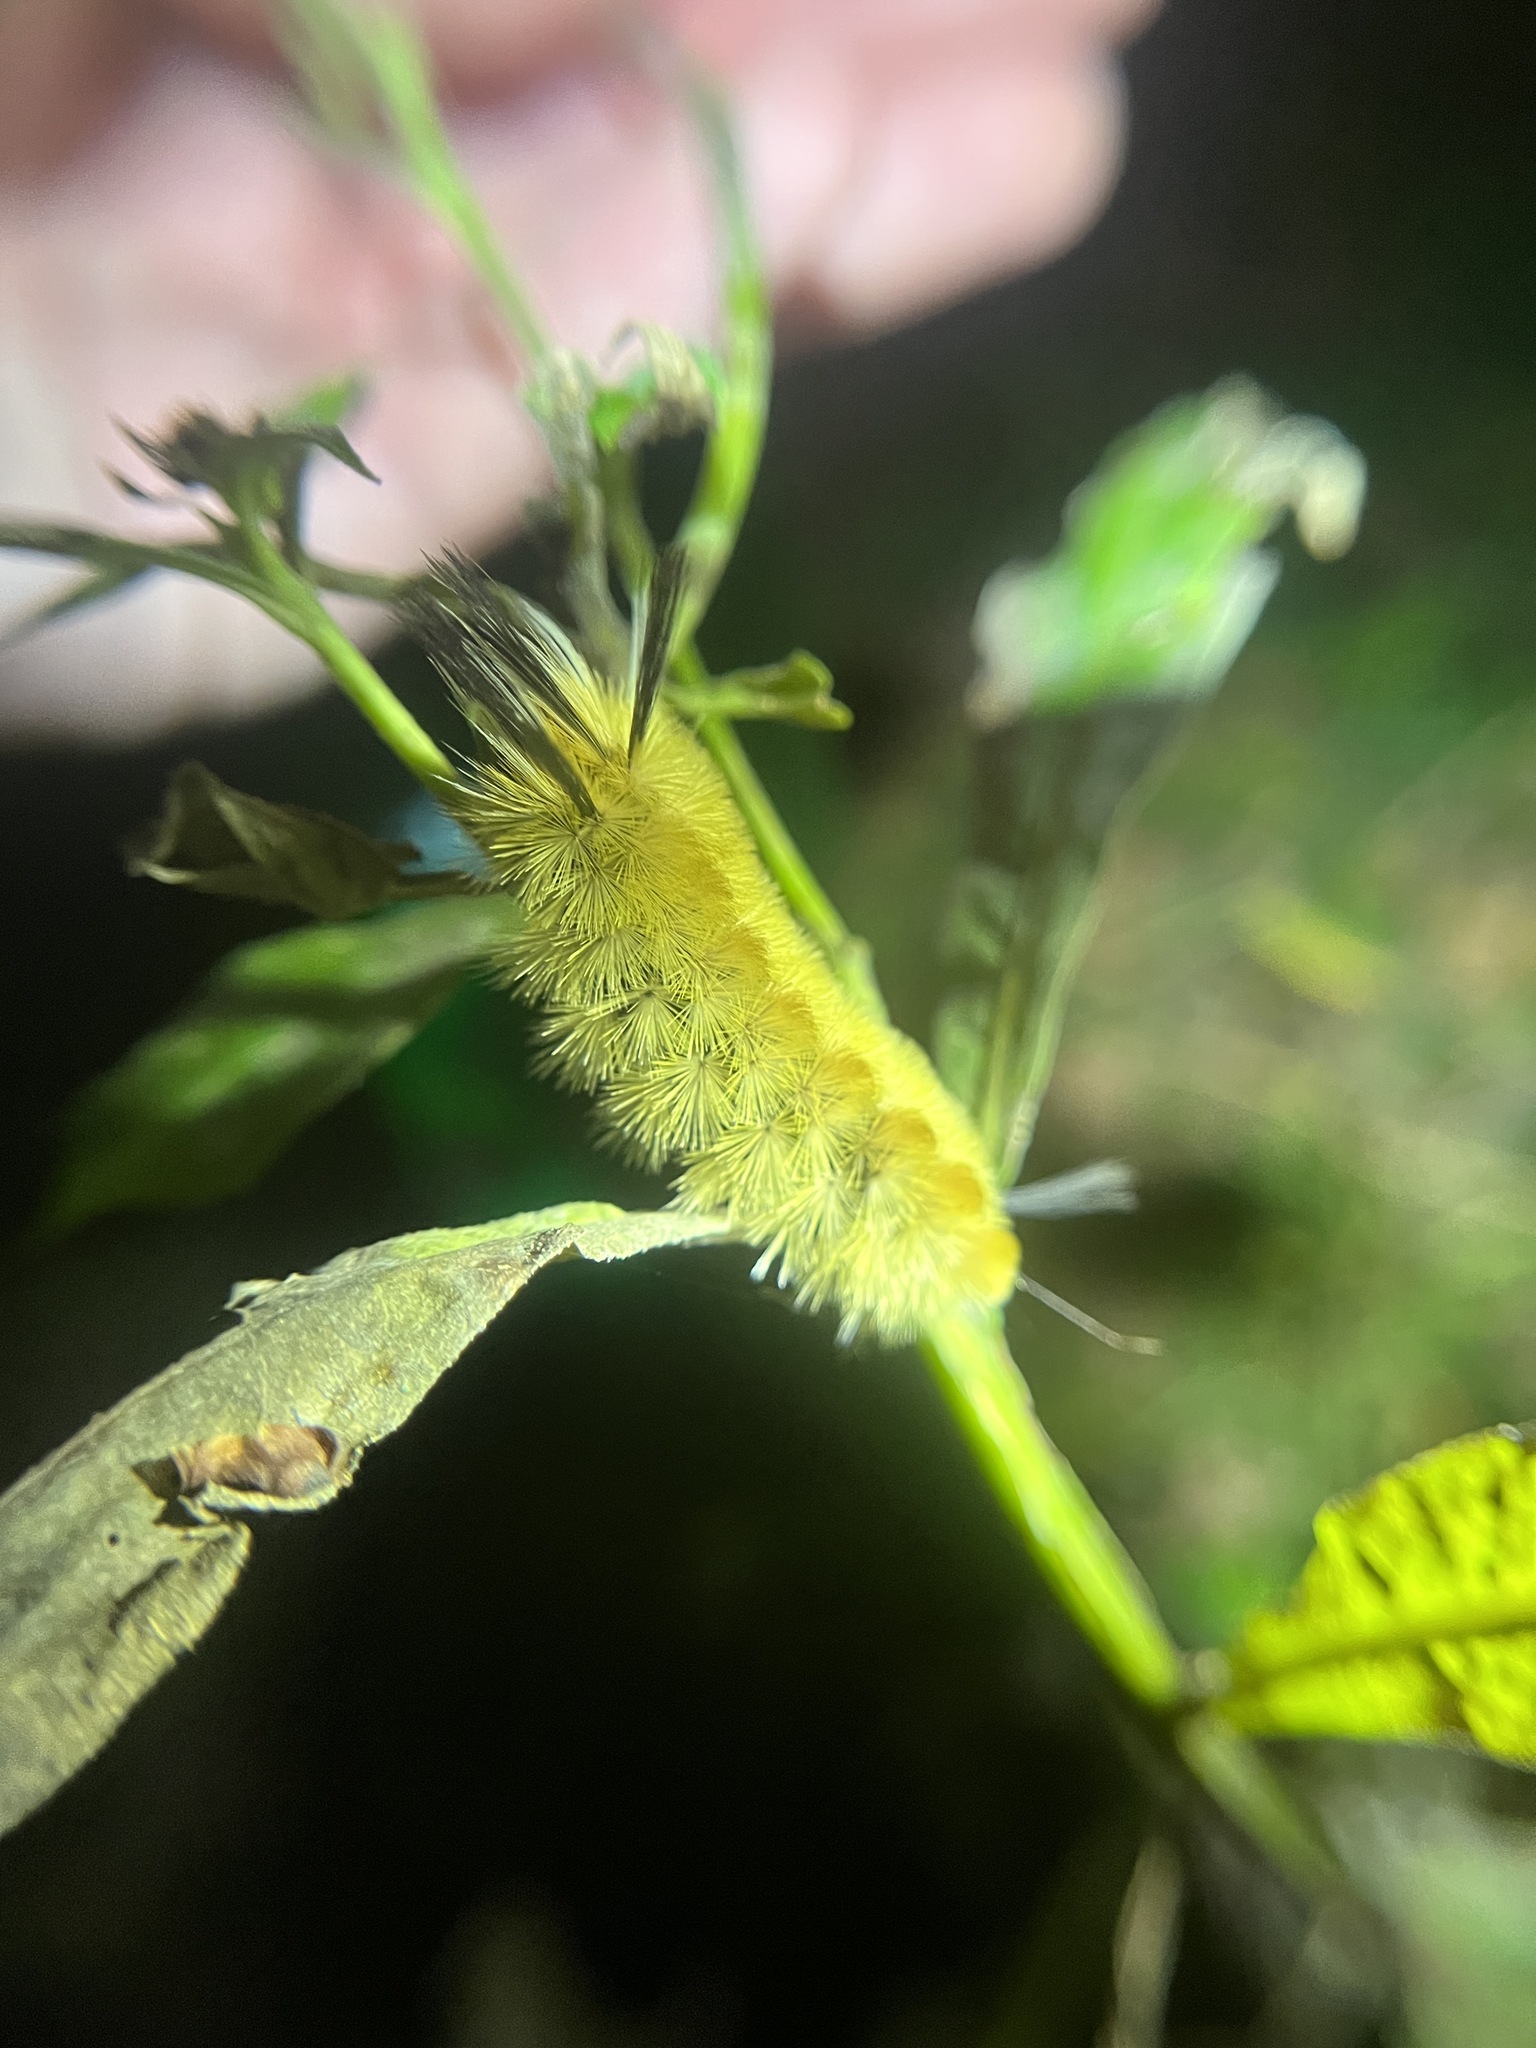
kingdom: Animalia
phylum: Arthropoda
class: Insecta
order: Lepidoptera
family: Erebidae
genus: Halysidota
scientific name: Halysidota tessellaris
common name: Banded tussock moth
